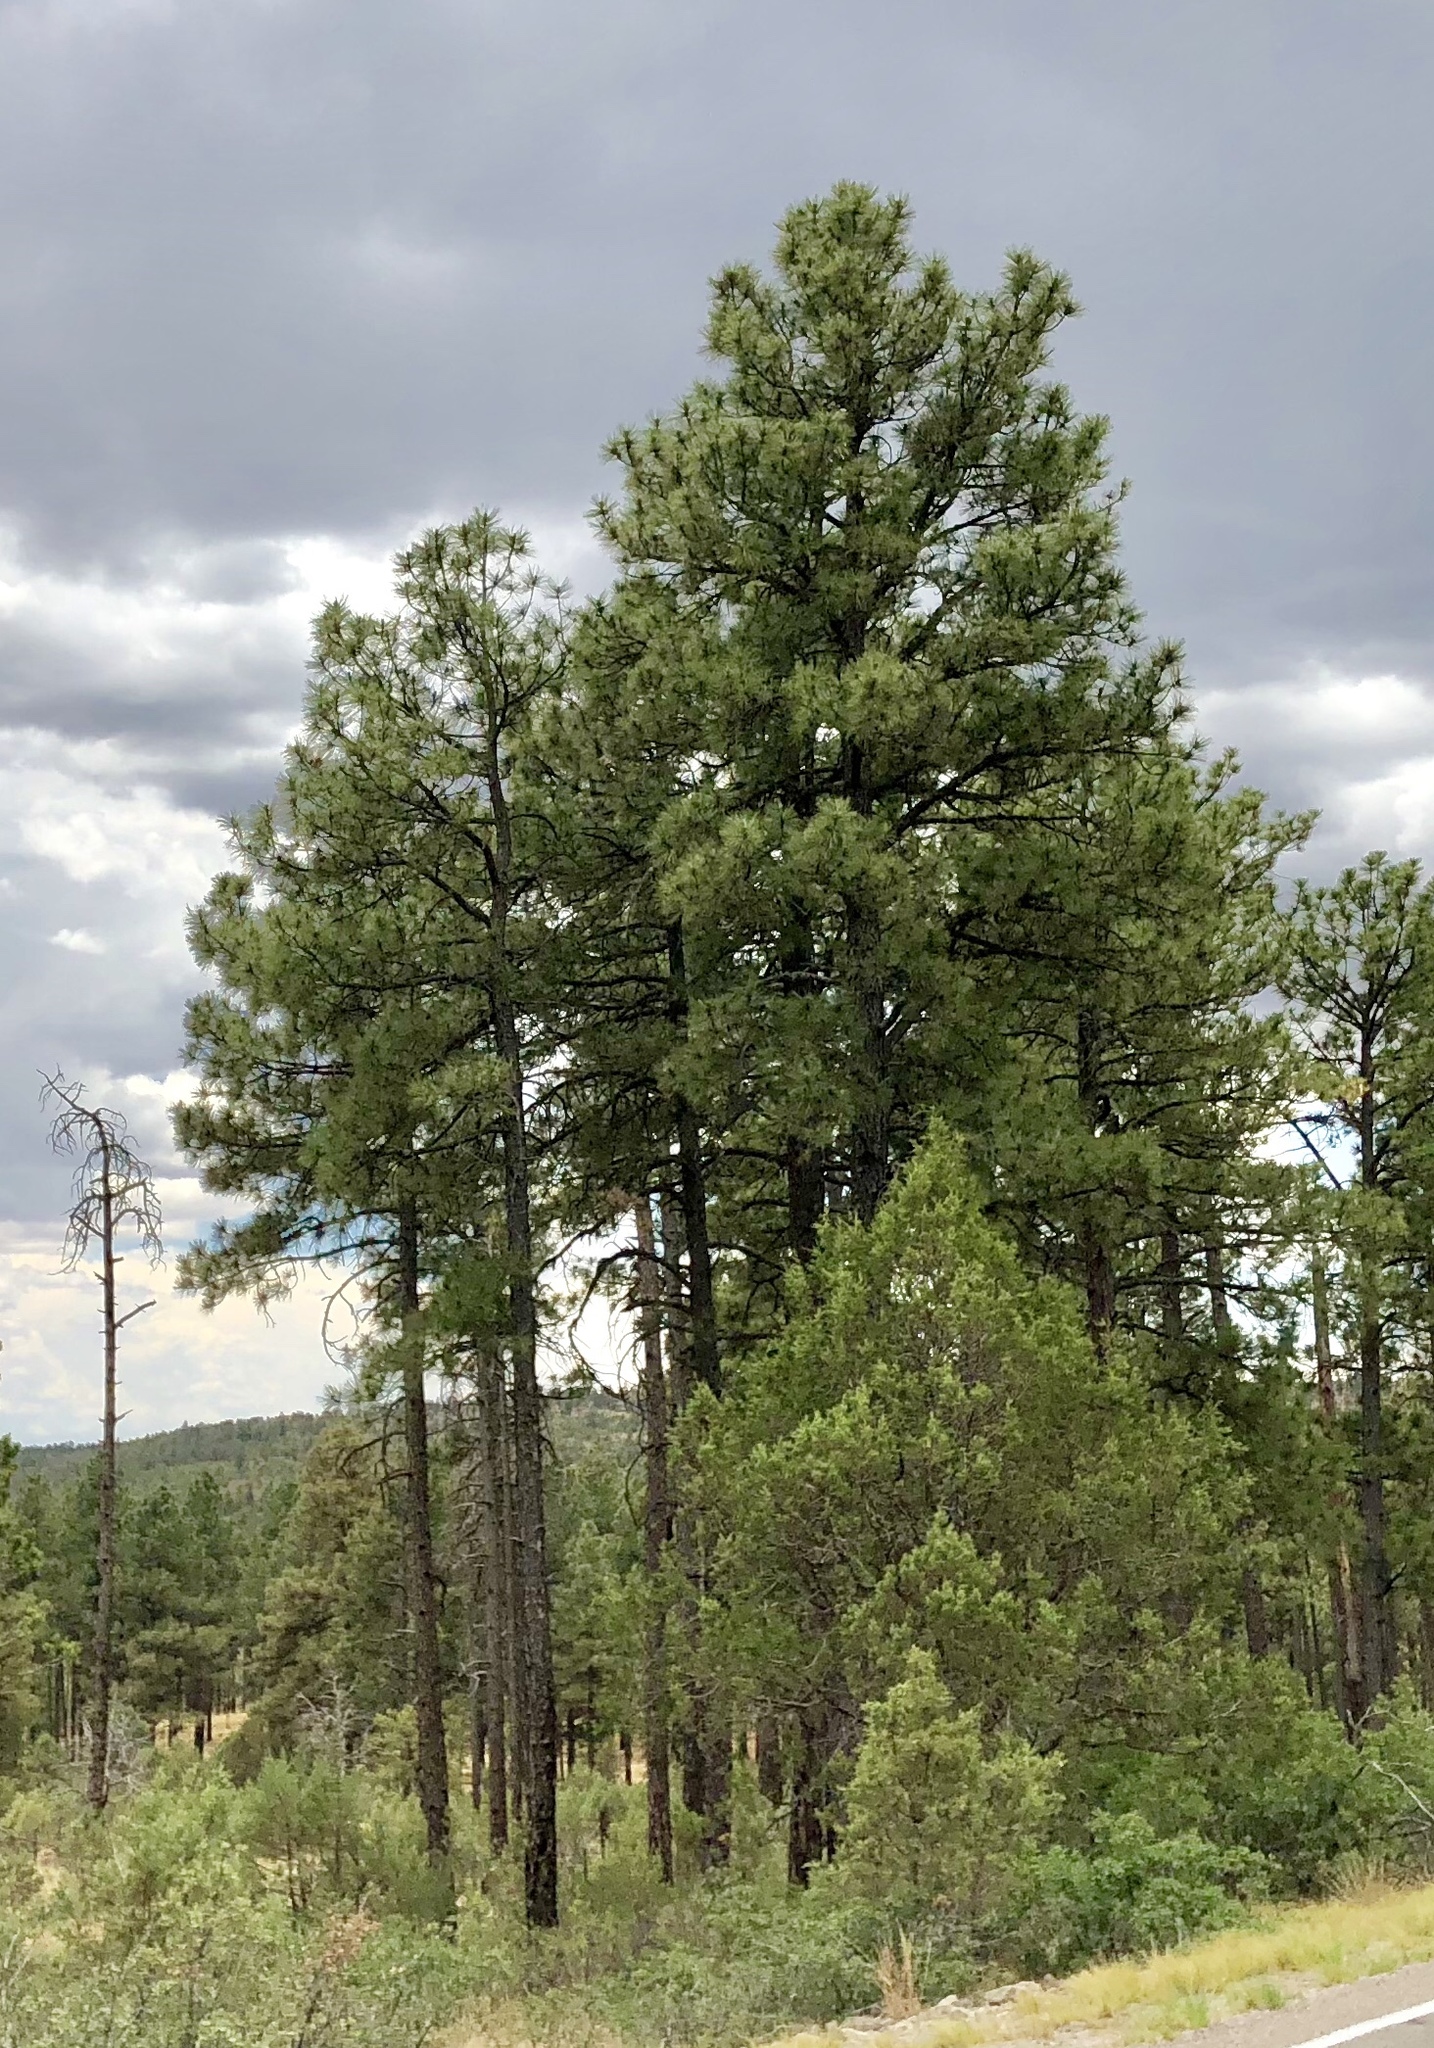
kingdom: Plantae
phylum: Tracheophyta
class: Pinopsida
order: Pinales
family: Pinaceae
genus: Pinus
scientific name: Pinus ponderosa
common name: Western yellow-pine
